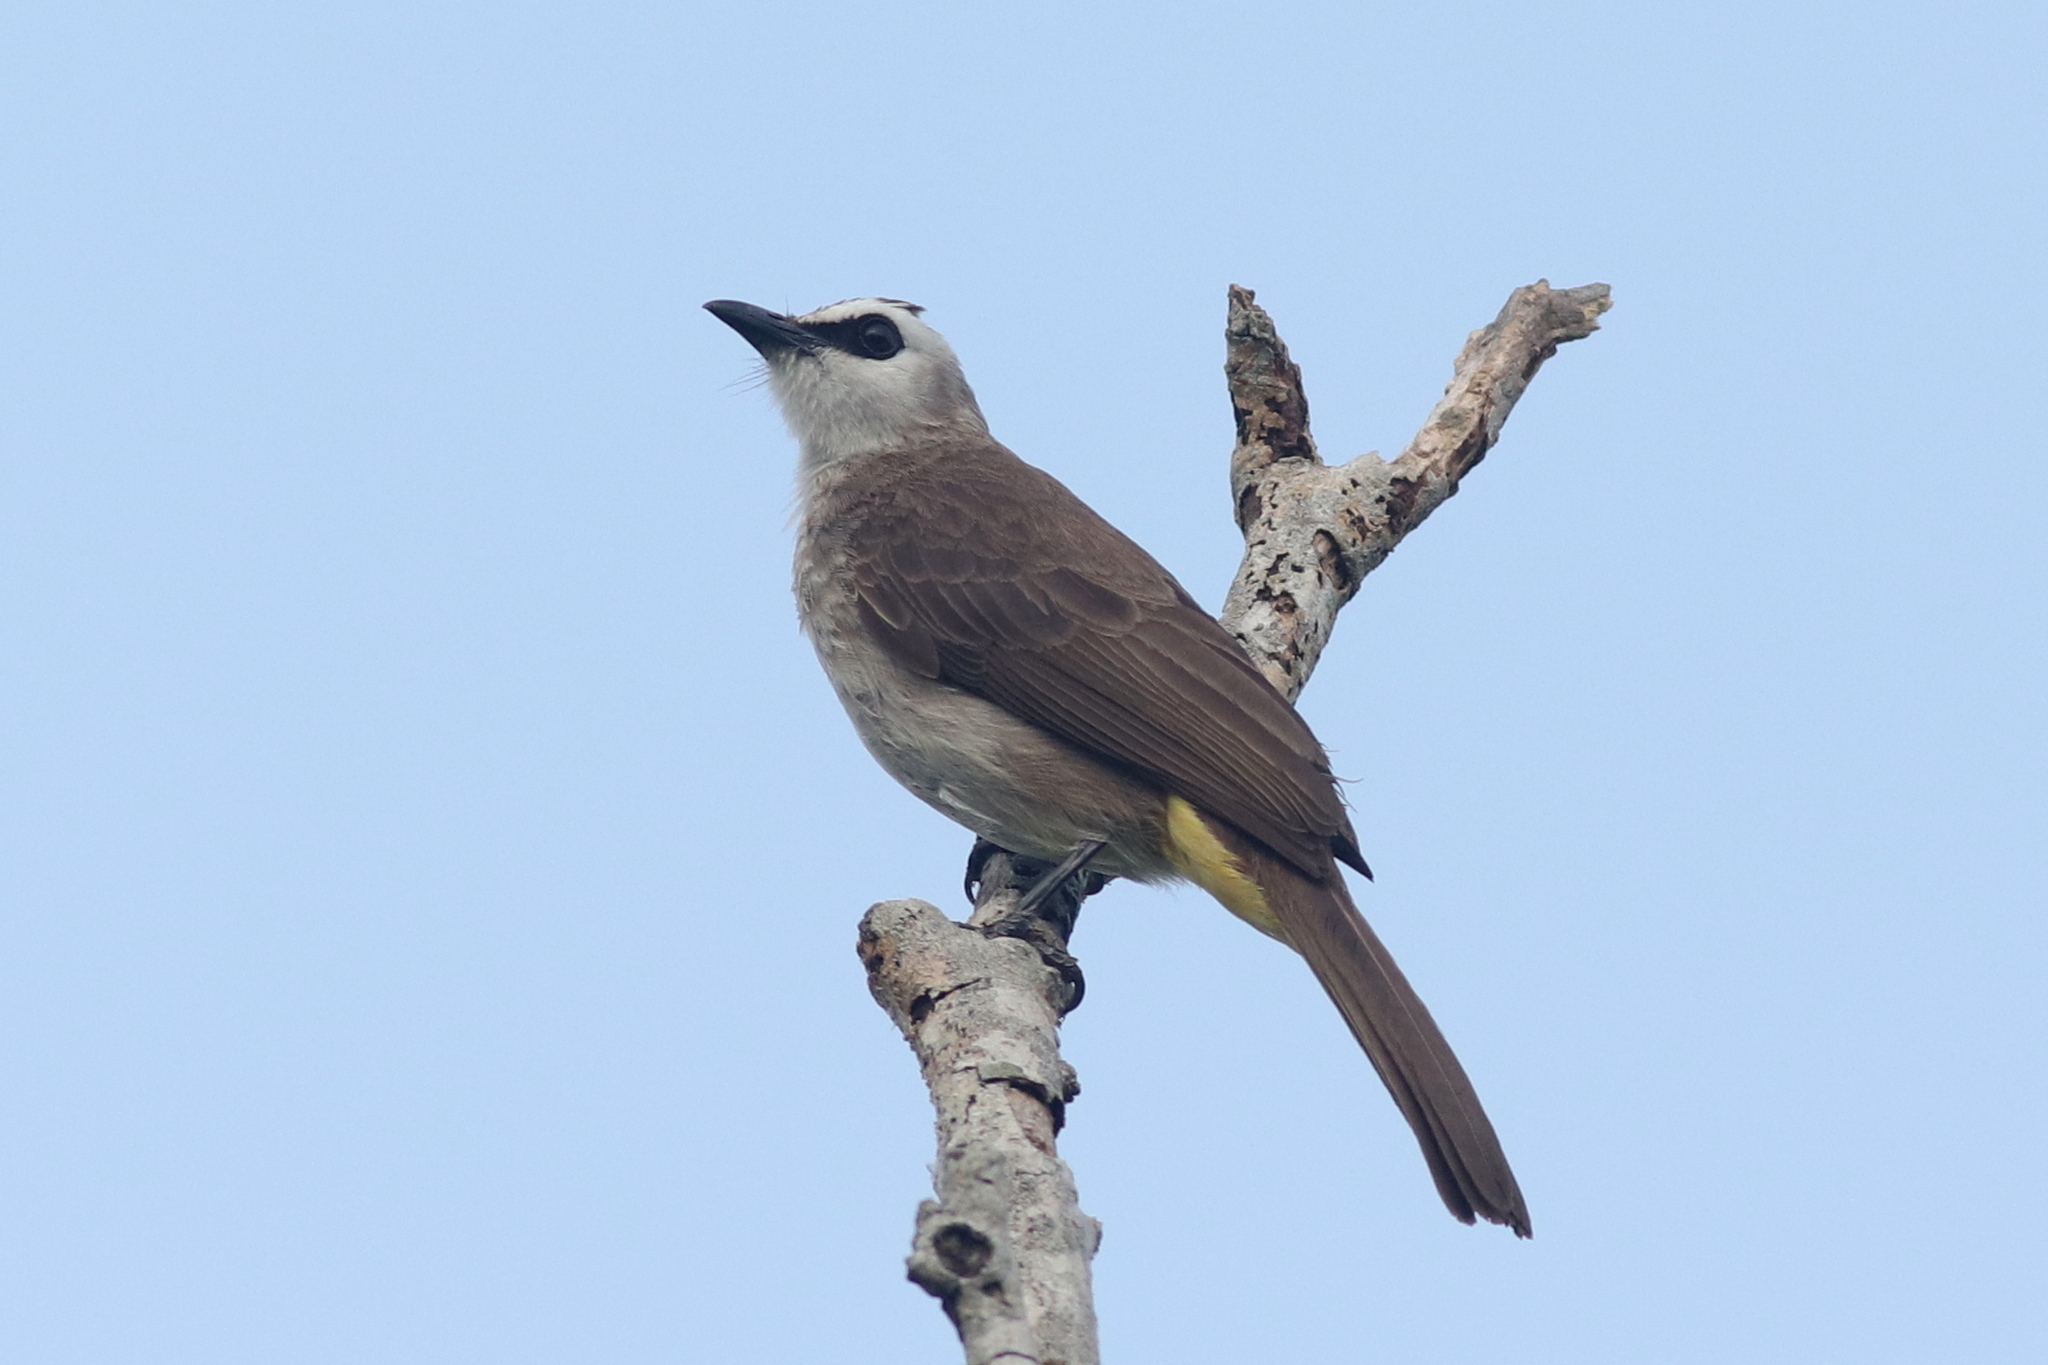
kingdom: Animalia
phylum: Chordata
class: Aves
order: Passeriformes
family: Pycnonotidae
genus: Pycnonotus
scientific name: Pycnonotus goiavier
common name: Yellow-vented bulbul
